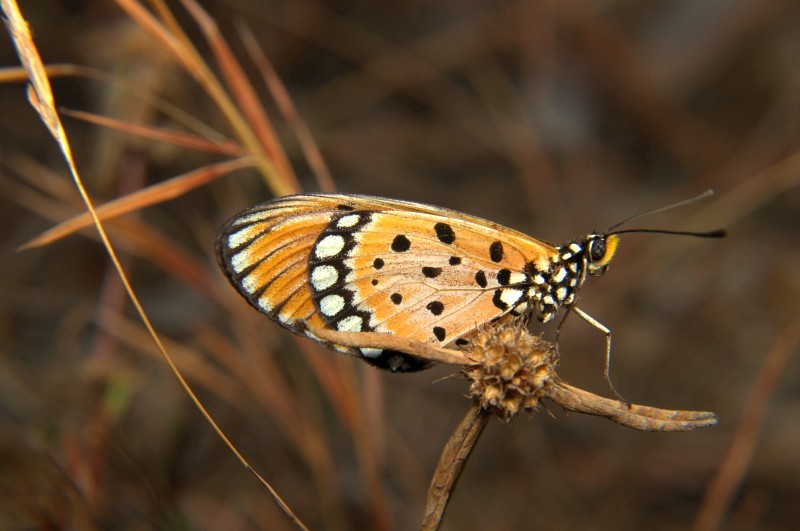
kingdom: Animalia
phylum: Arthropoda
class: Insecta
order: Lepidoptera
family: Nymphalidae
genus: Acraea
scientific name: Acraea terpsicore
